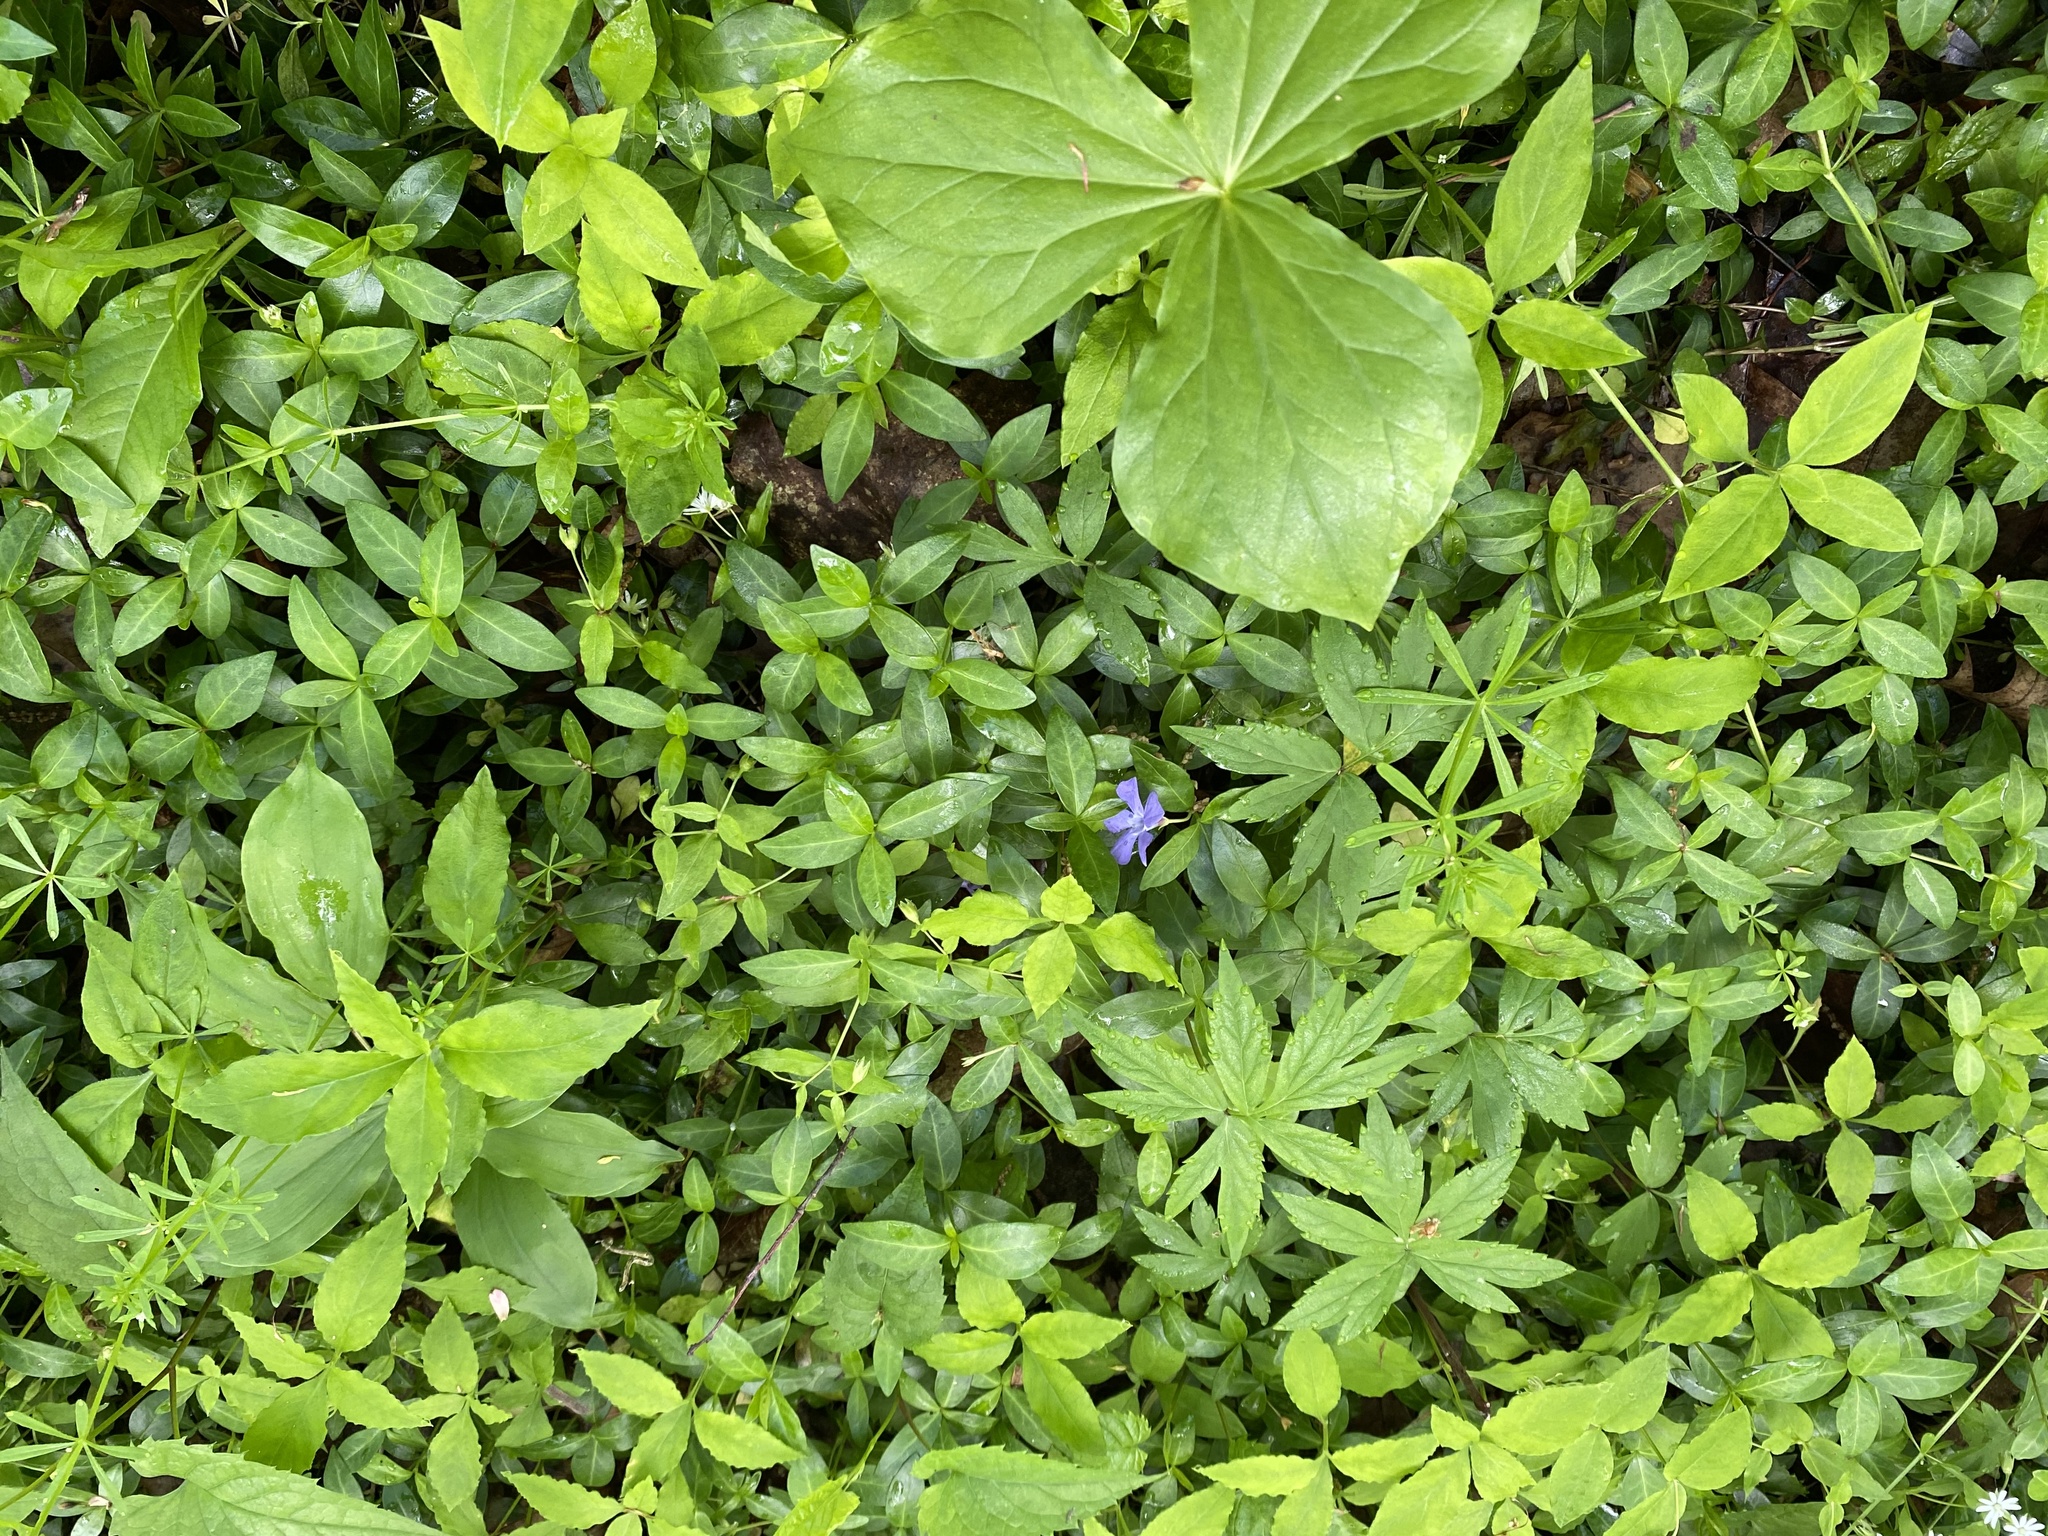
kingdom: Plantae
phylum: Tracheophyta
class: Magnoliopsida
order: Gentianales
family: Apocynaceae
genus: Vinca
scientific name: Vinca minor
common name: Lesser periwinkle
